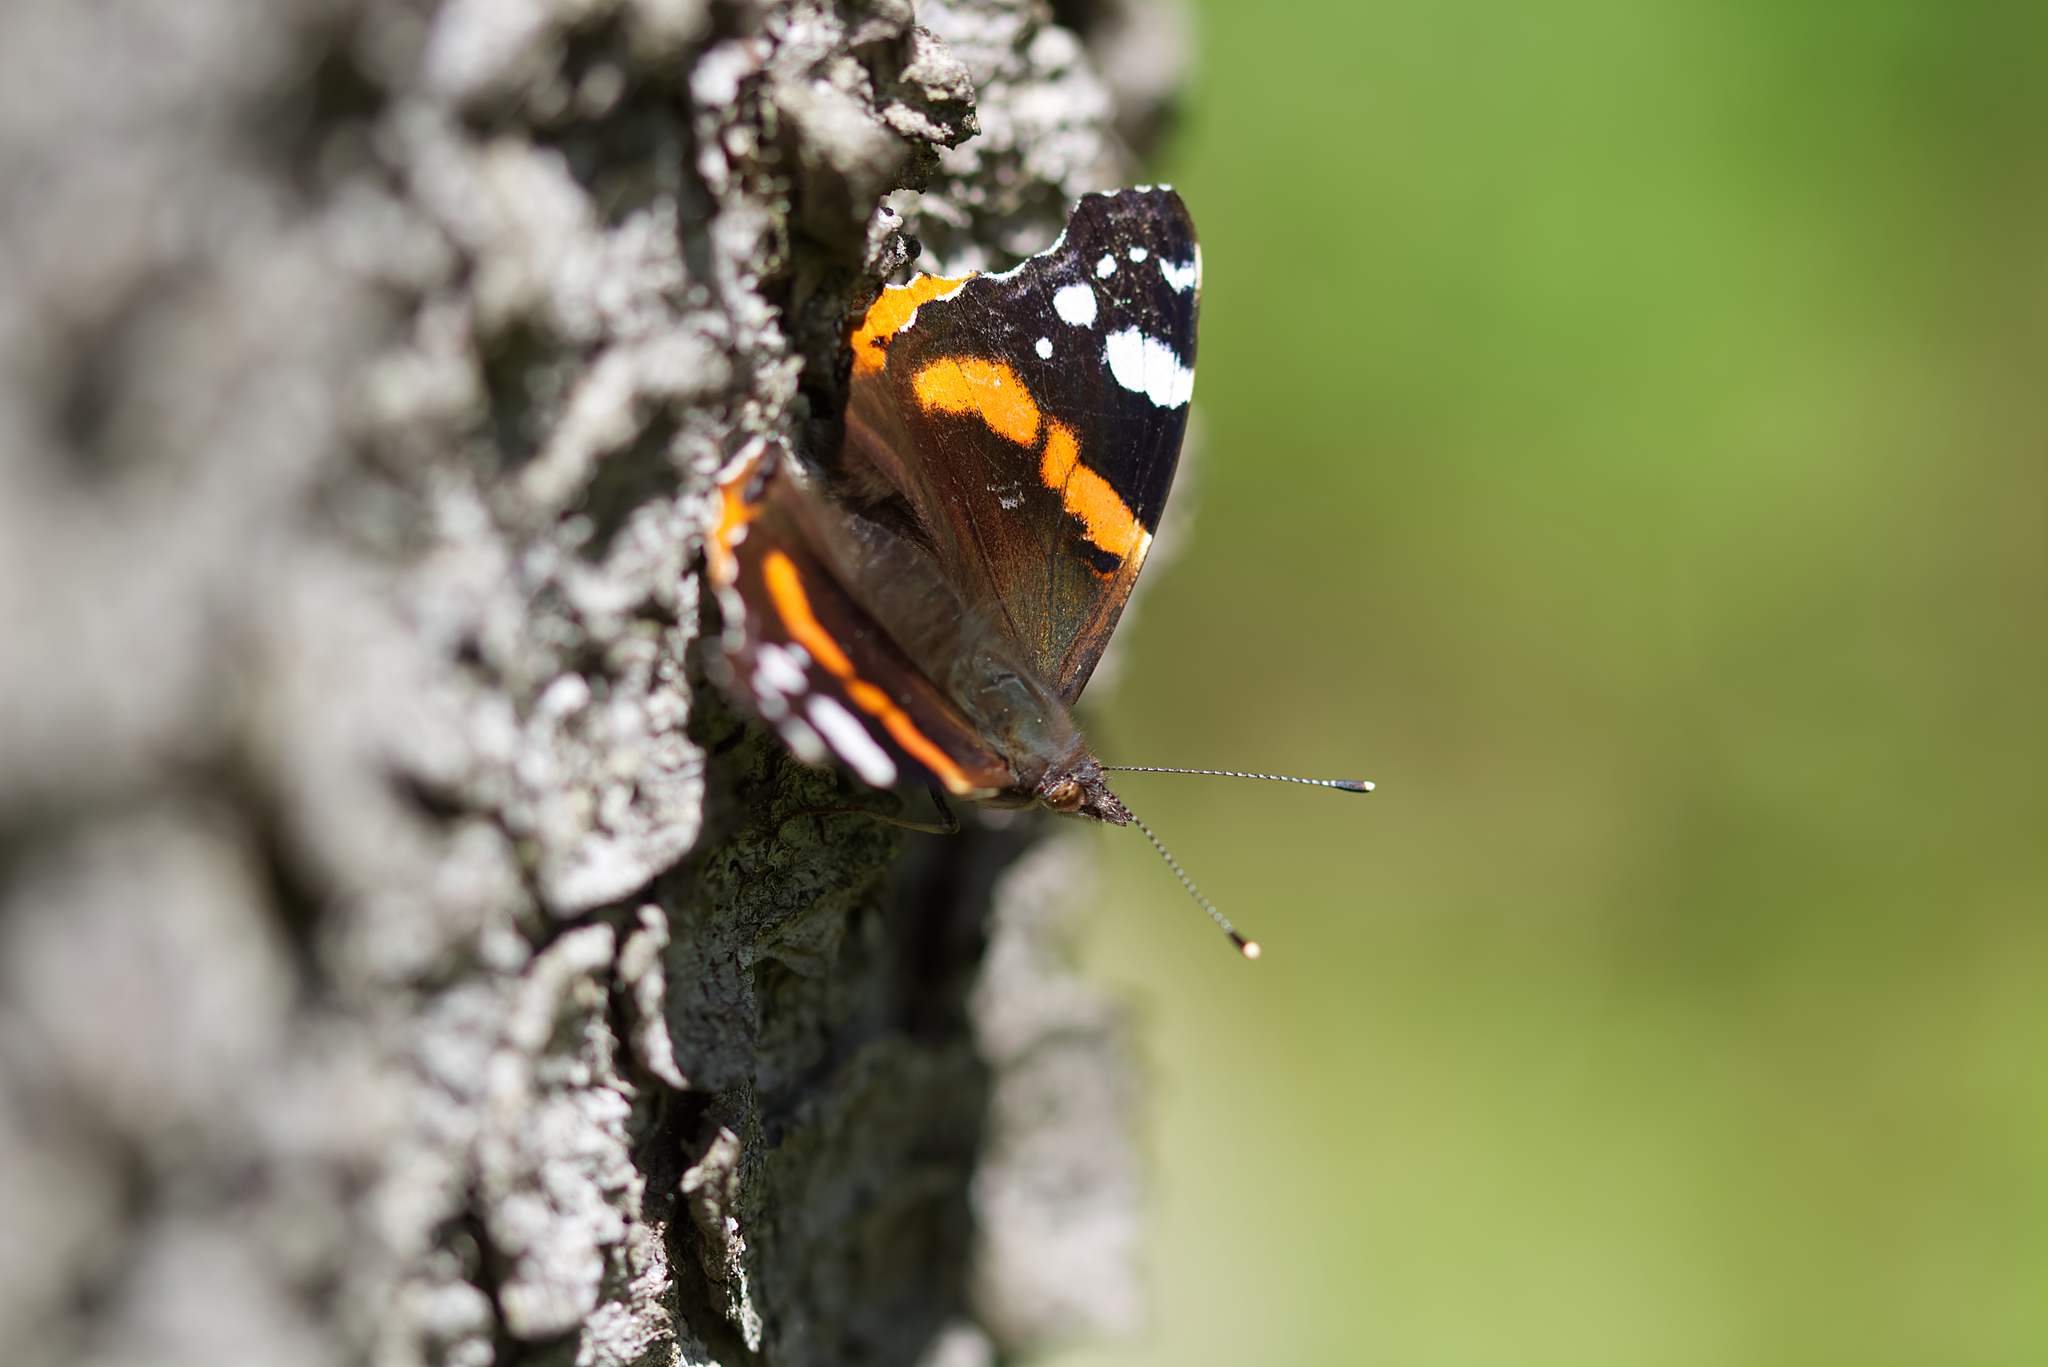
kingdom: Animalia
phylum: Arthropoda
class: Insecta
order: Lepidoptera
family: Nymphalidae
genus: Vanessa
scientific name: Vanessa atalanta
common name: Red admiral
